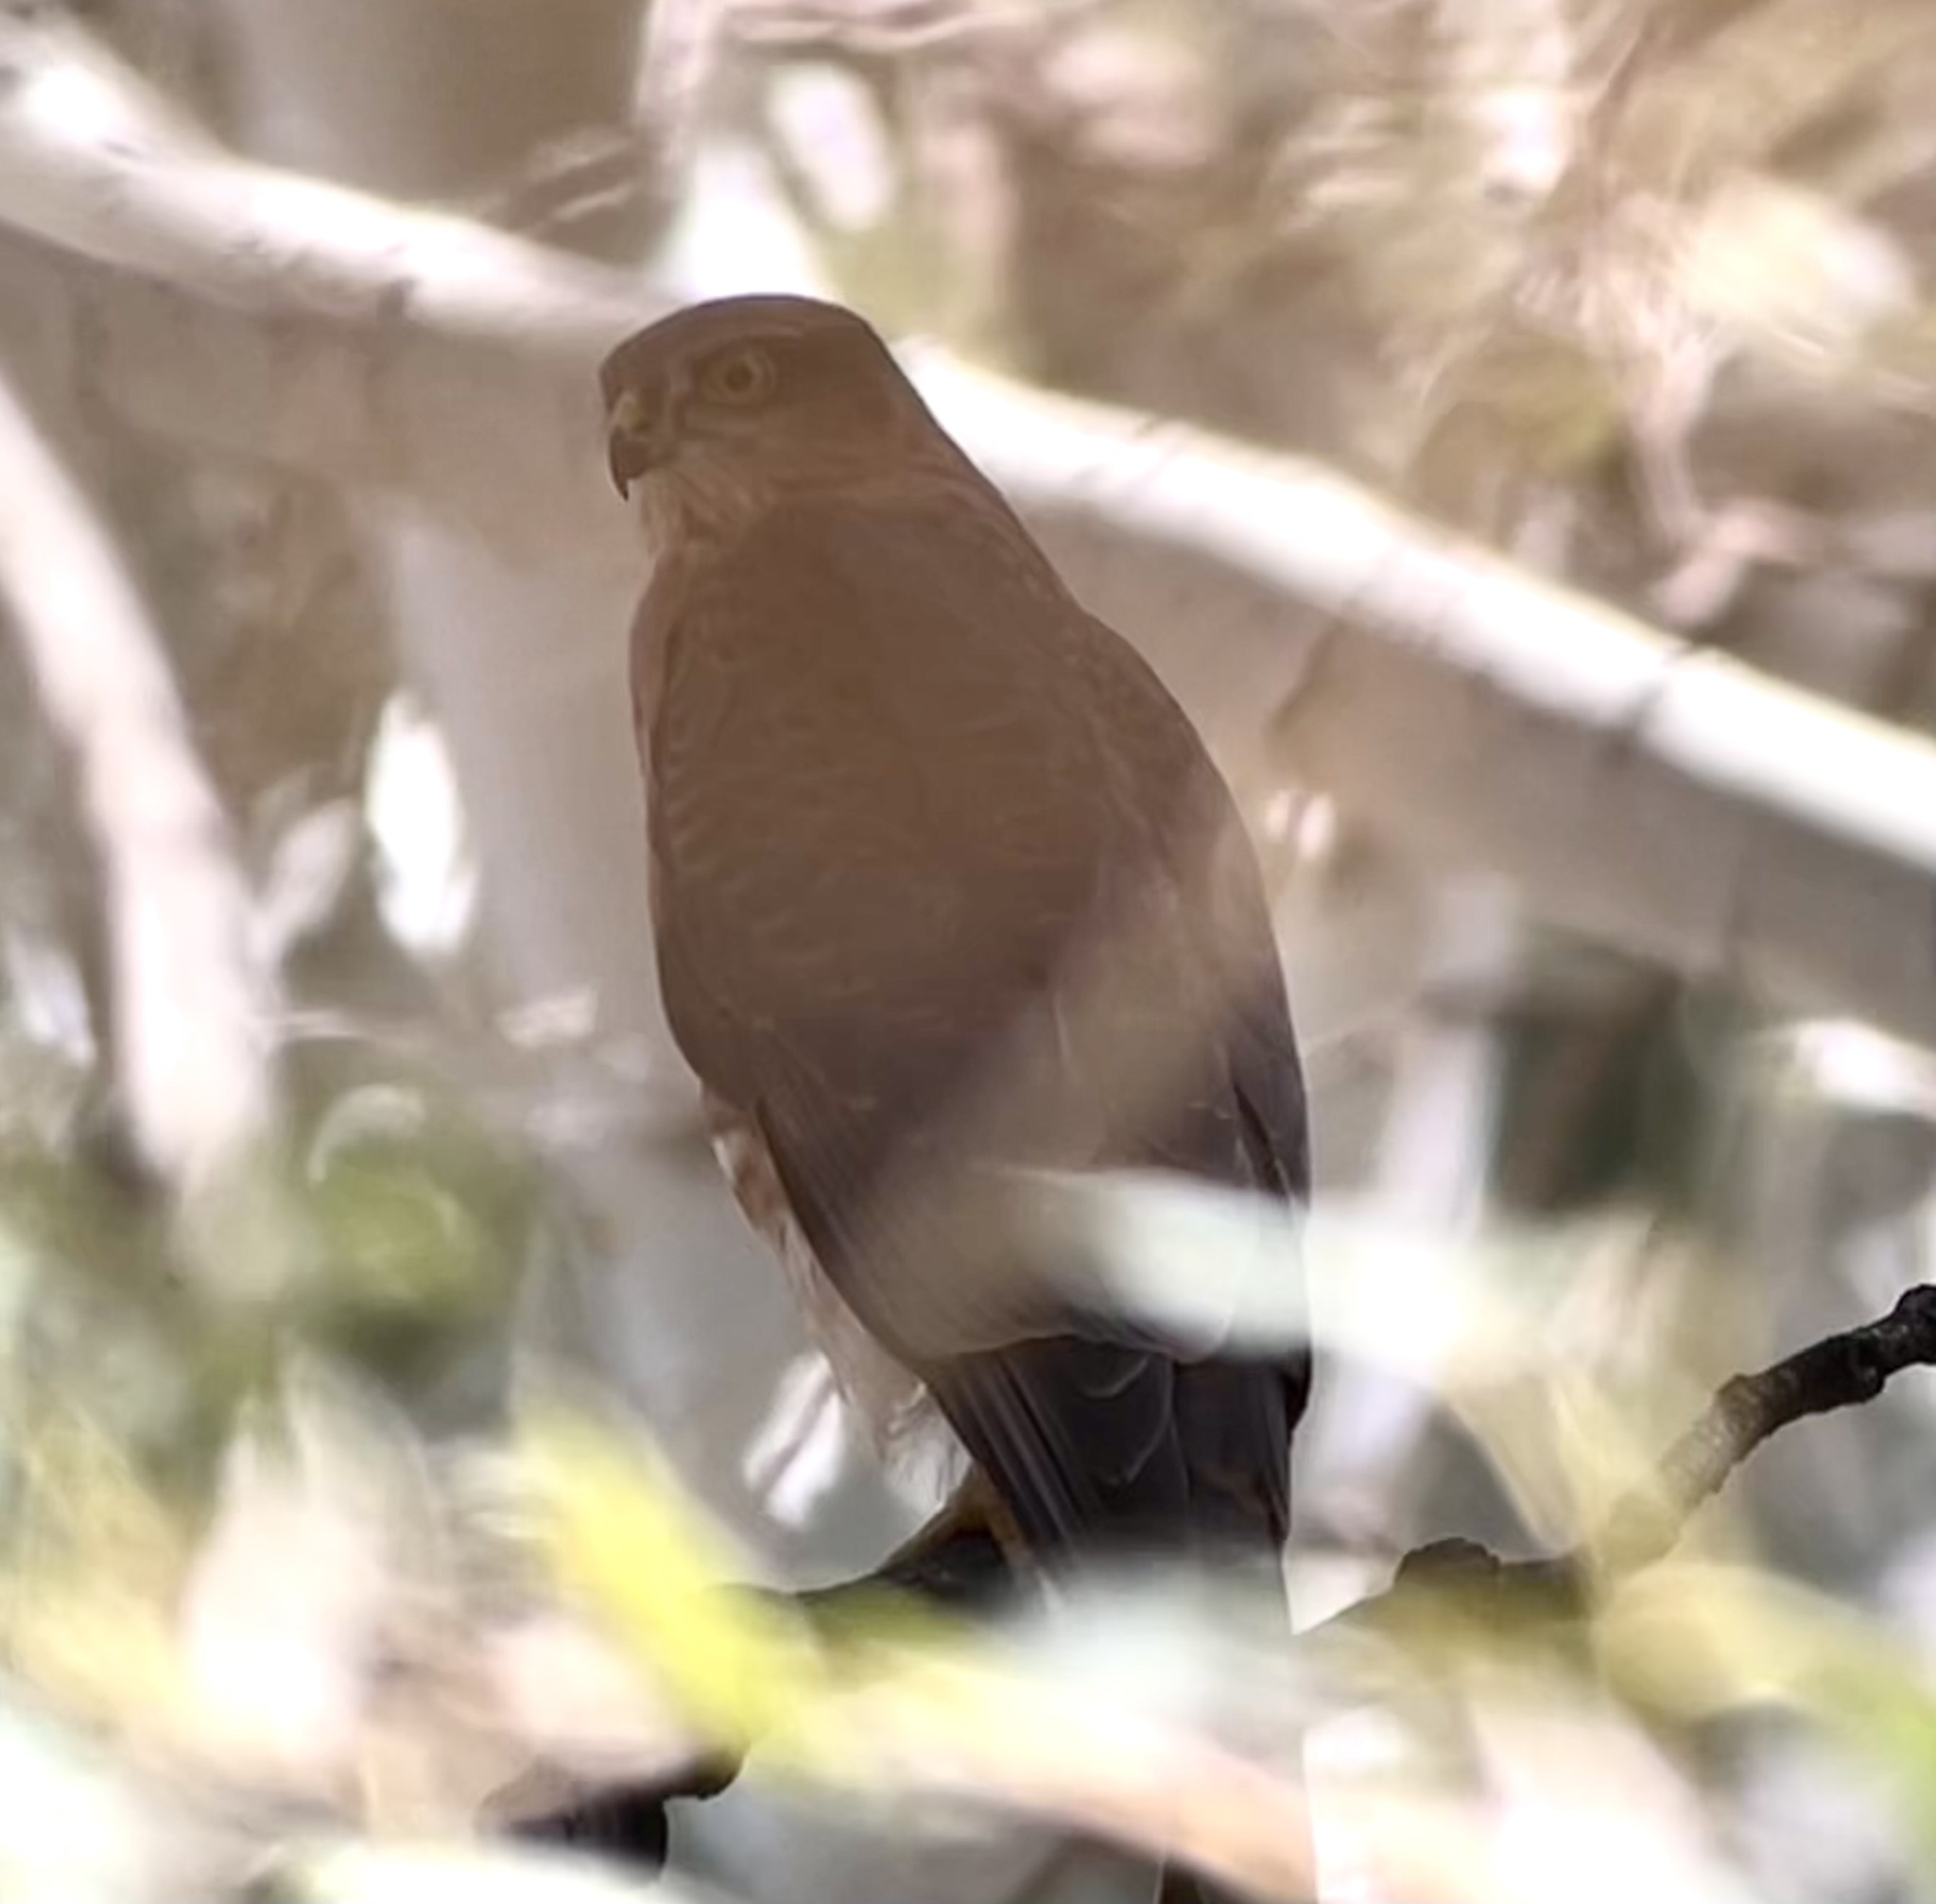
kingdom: Animalia
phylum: Chordata
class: Aves
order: Accipitriformes
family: Accipitridae
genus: Accipiter
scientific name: Accipiter nisus
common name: Eurasian sparrowhawk
